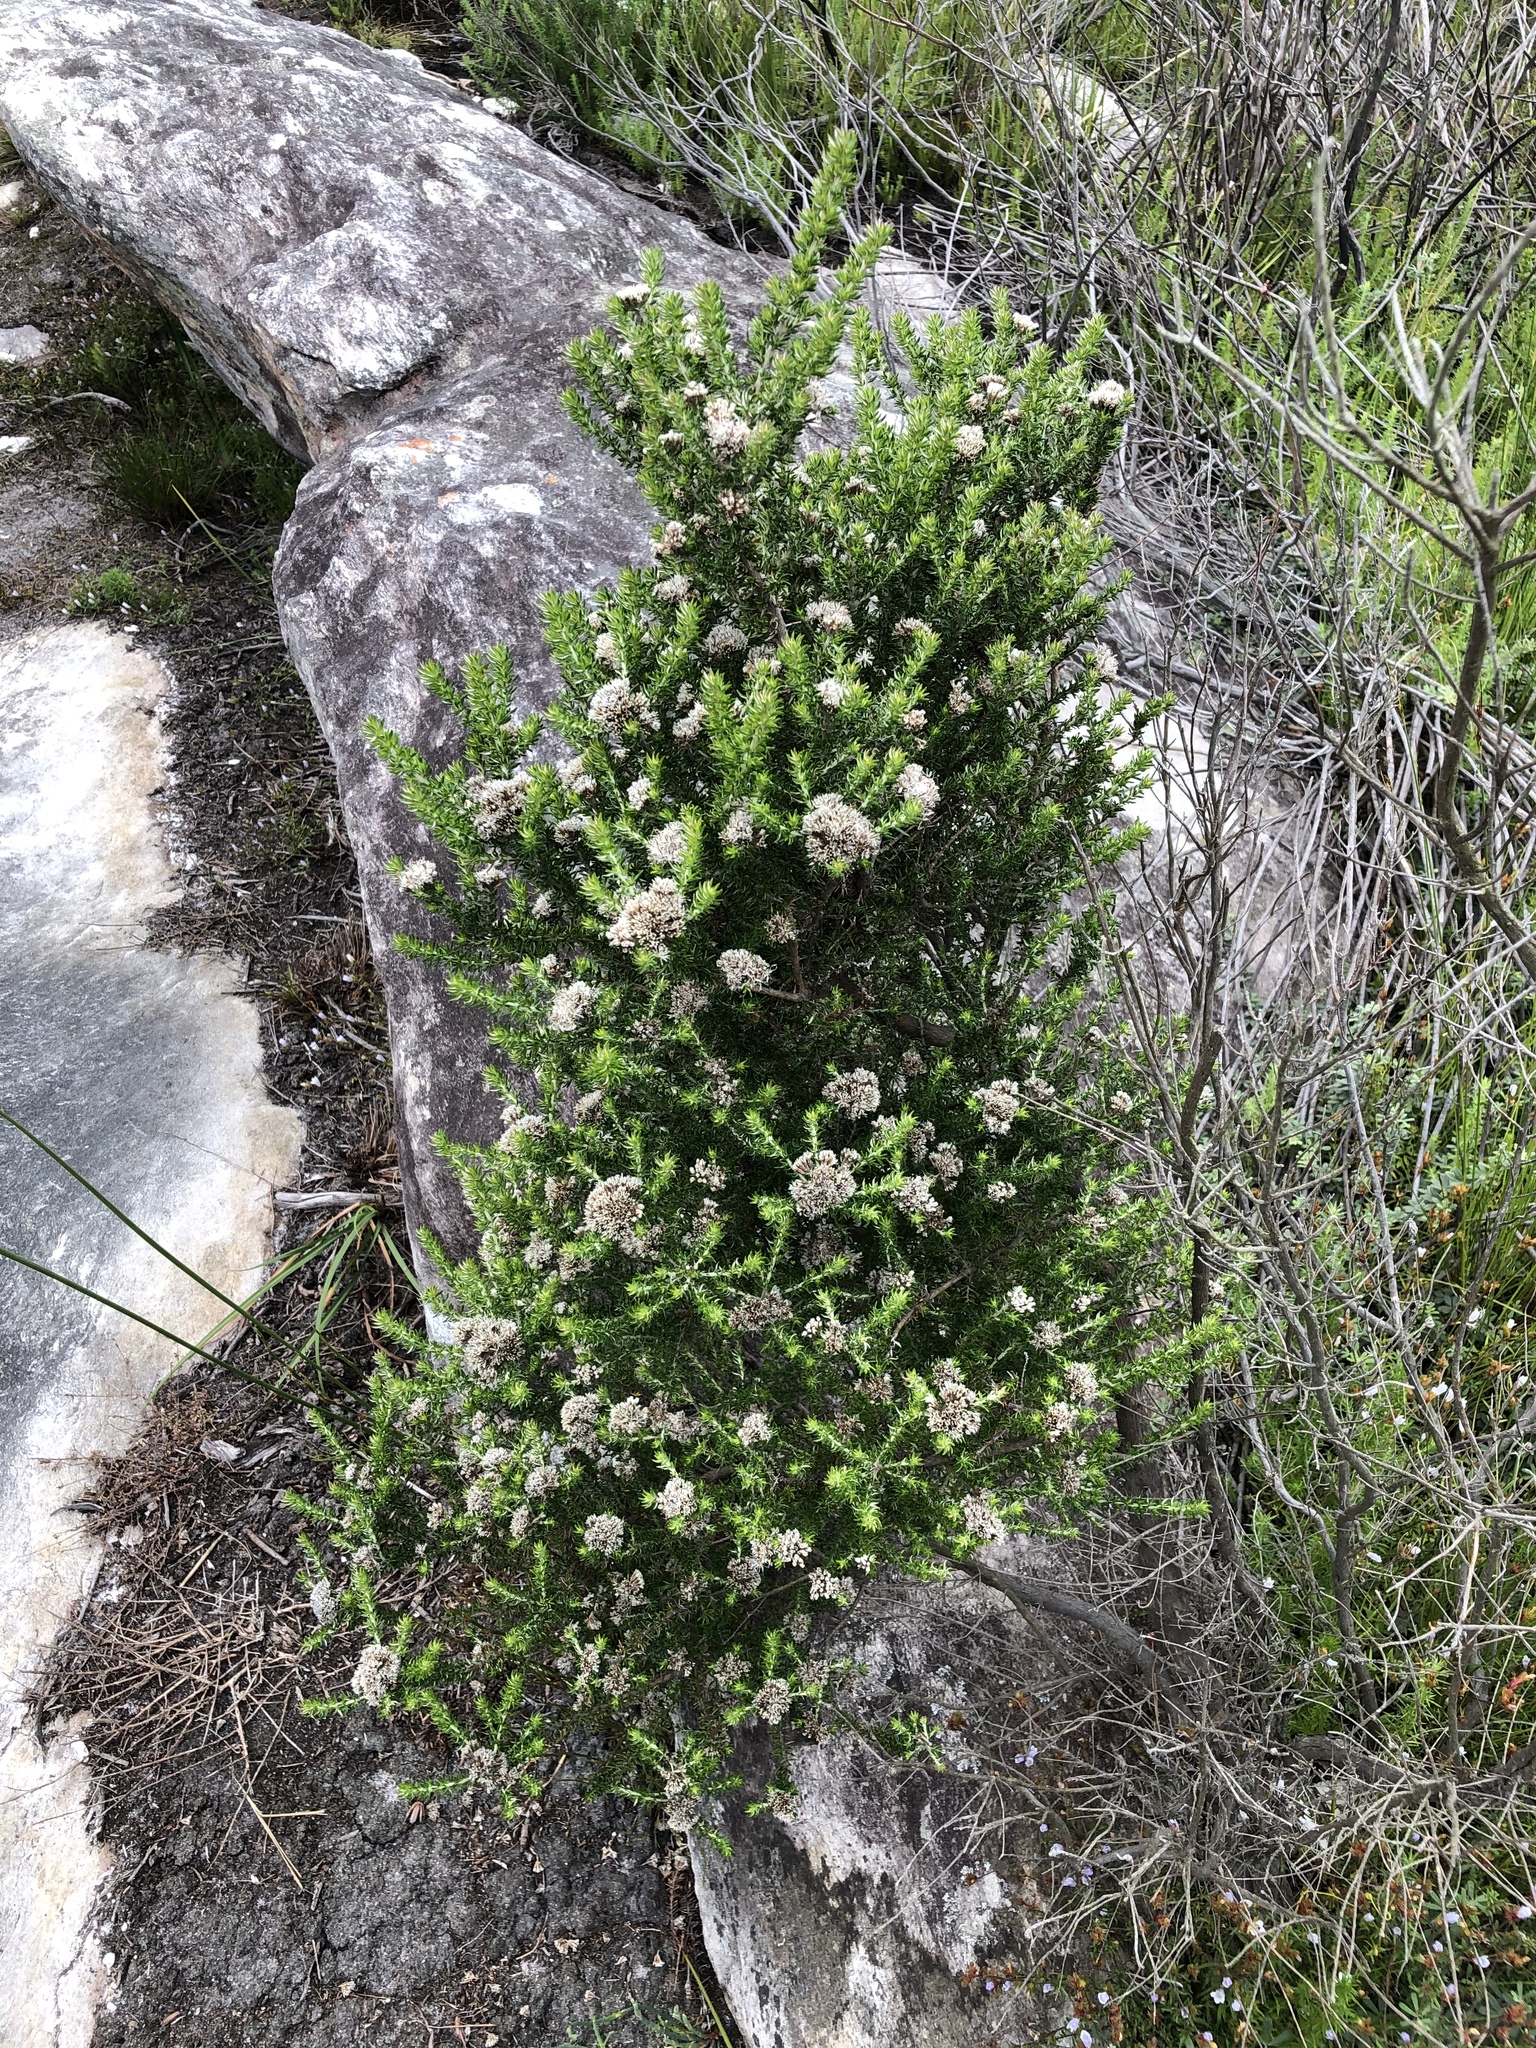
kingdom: Plantae
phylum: Tracheophyta
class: Magnoliopsida
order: Asterales
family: Asteraceae
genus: Metalasia
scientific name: Metalasia densa
